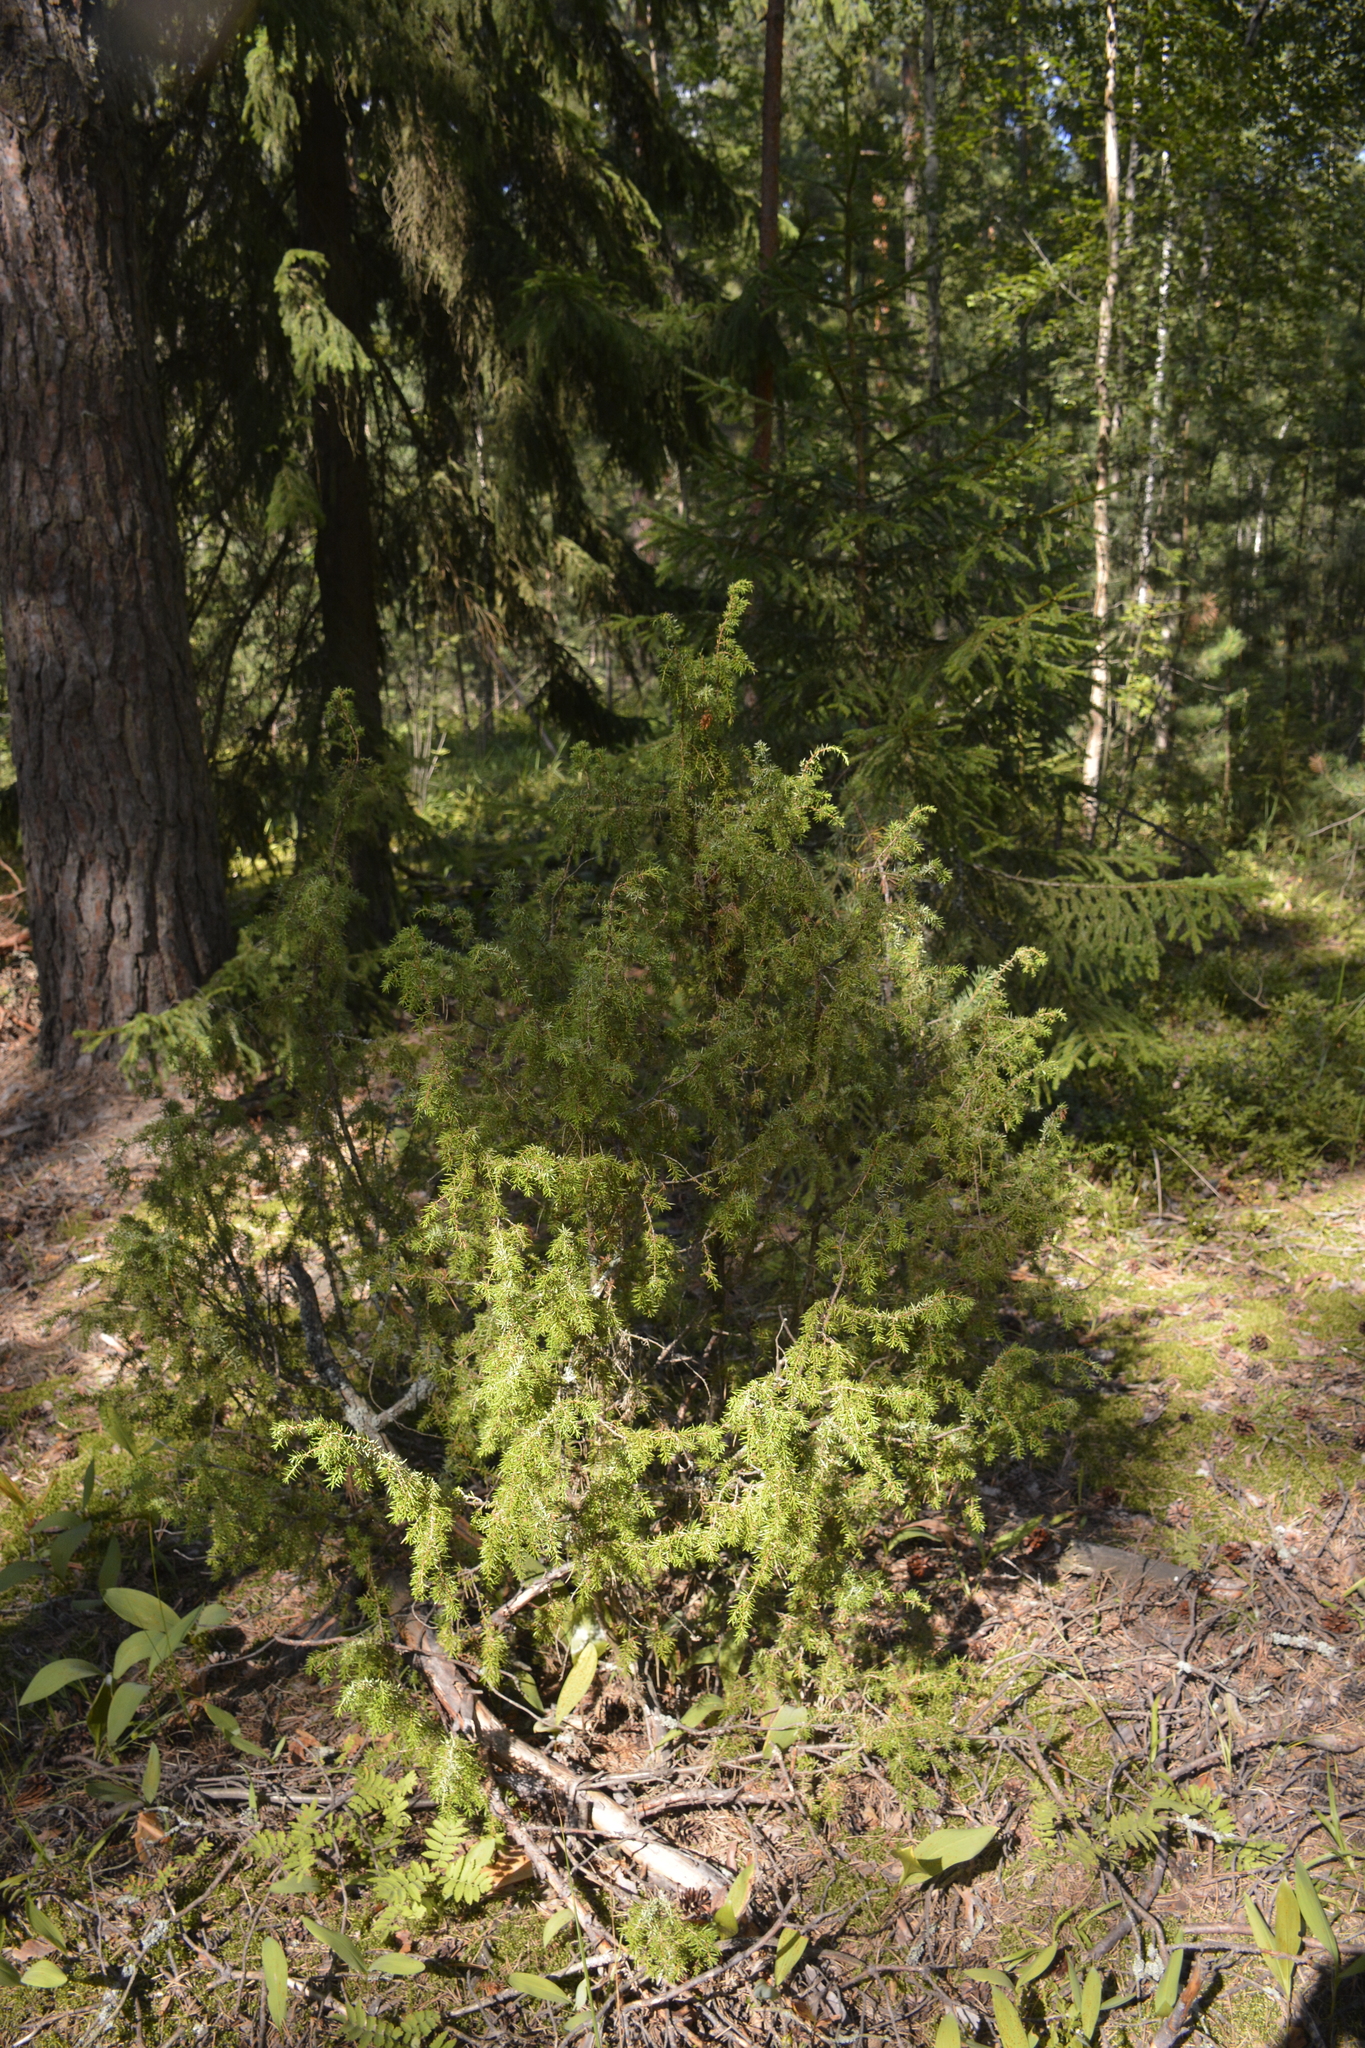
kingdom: Plantae
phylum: Tracheophyta
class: Pinopsida
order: Pinales
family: Cupressaceae
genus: Juniperus
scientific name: Juniperus communis
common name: Common juniper
